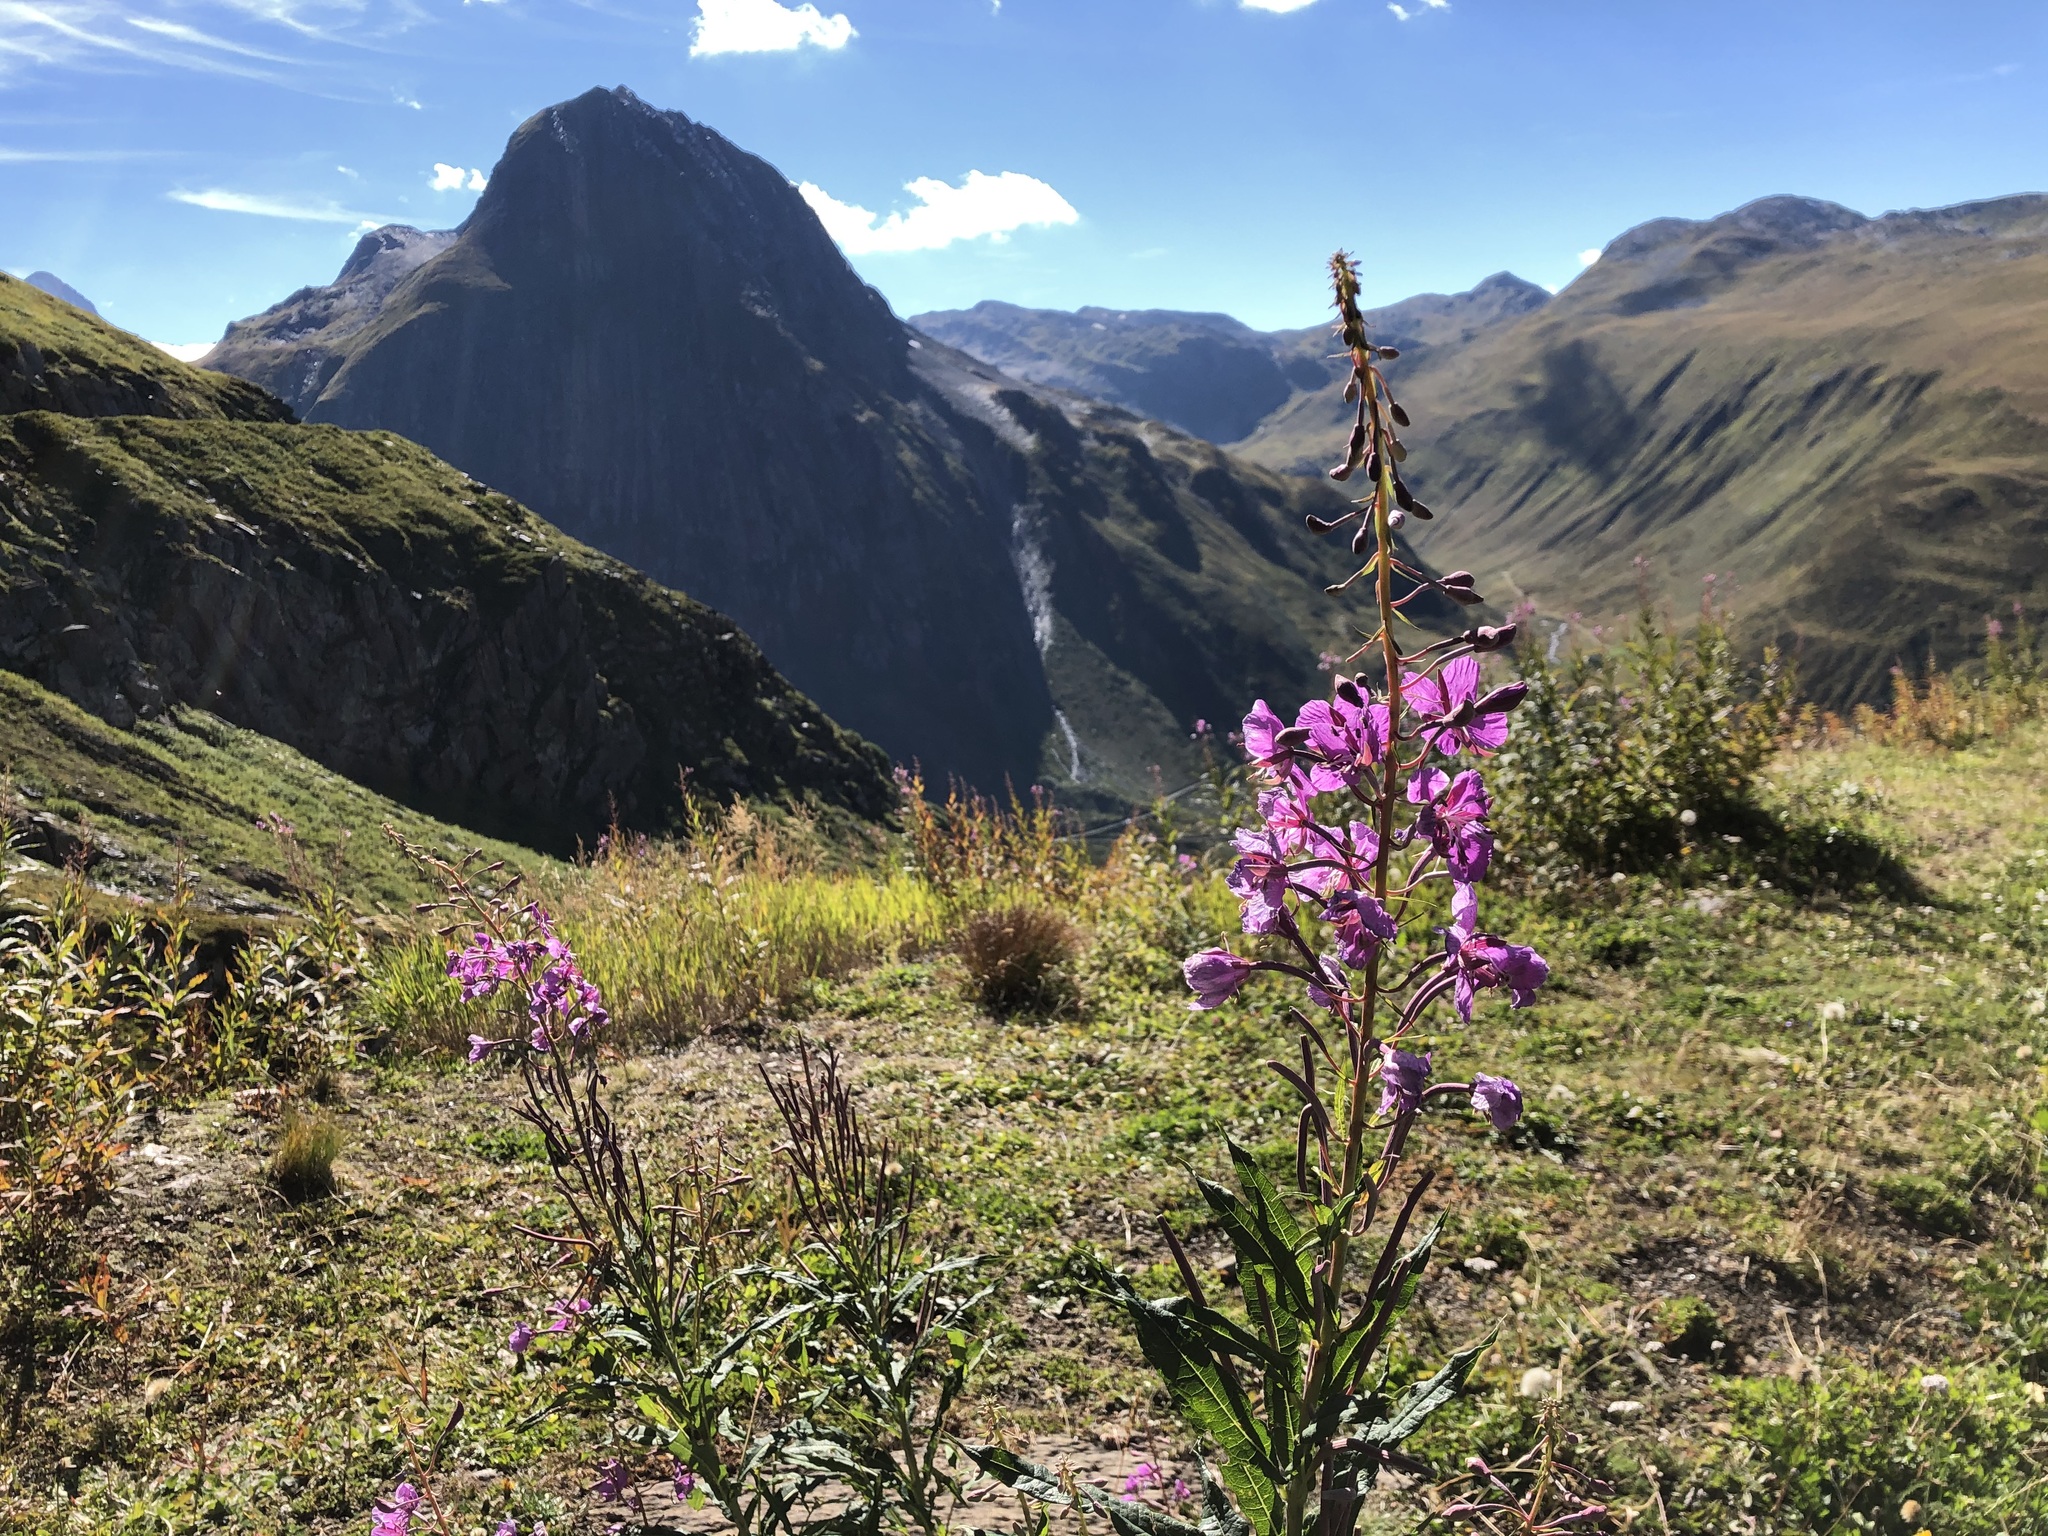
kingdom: Plantae
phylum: Tracheophyta
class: Magnoliopsida
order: Myrtales
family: Onagraceae
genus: Chamaenerion
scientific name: Chamaenerion angustifolium
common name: Fireweed
